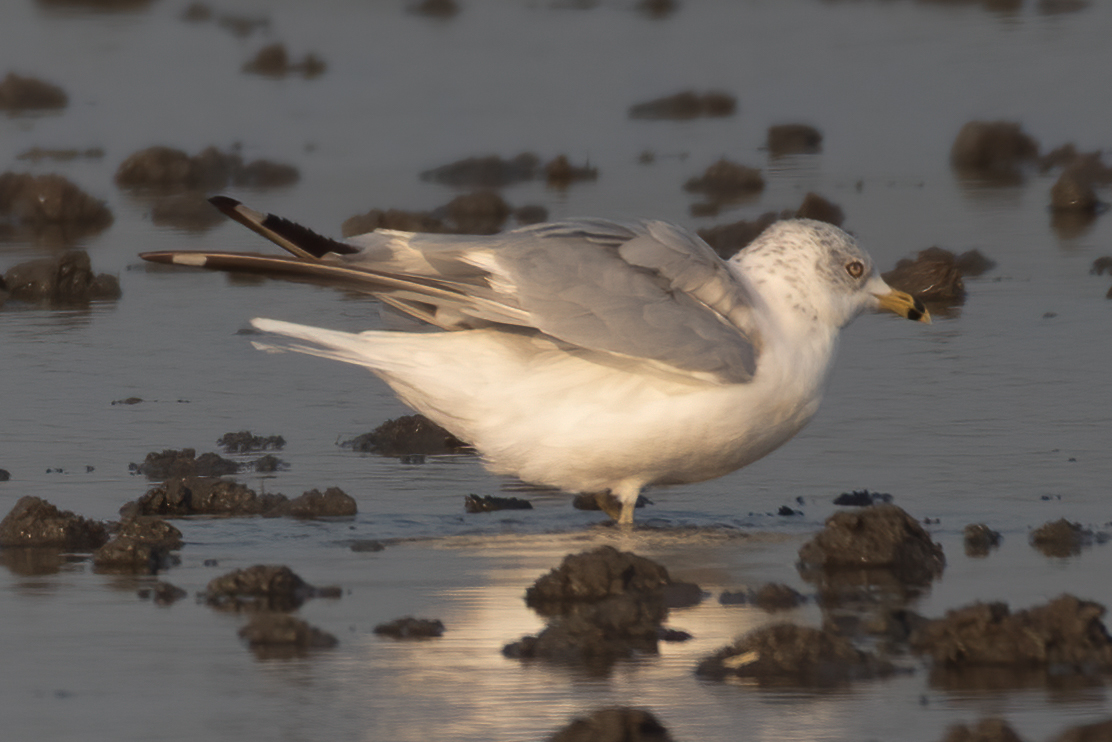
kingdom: Animalia
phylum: Chordata
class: Aves
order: Charadriiformes
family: Laridae
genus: Larus
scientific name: Larus delawarensis
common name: Ring-billed gull
